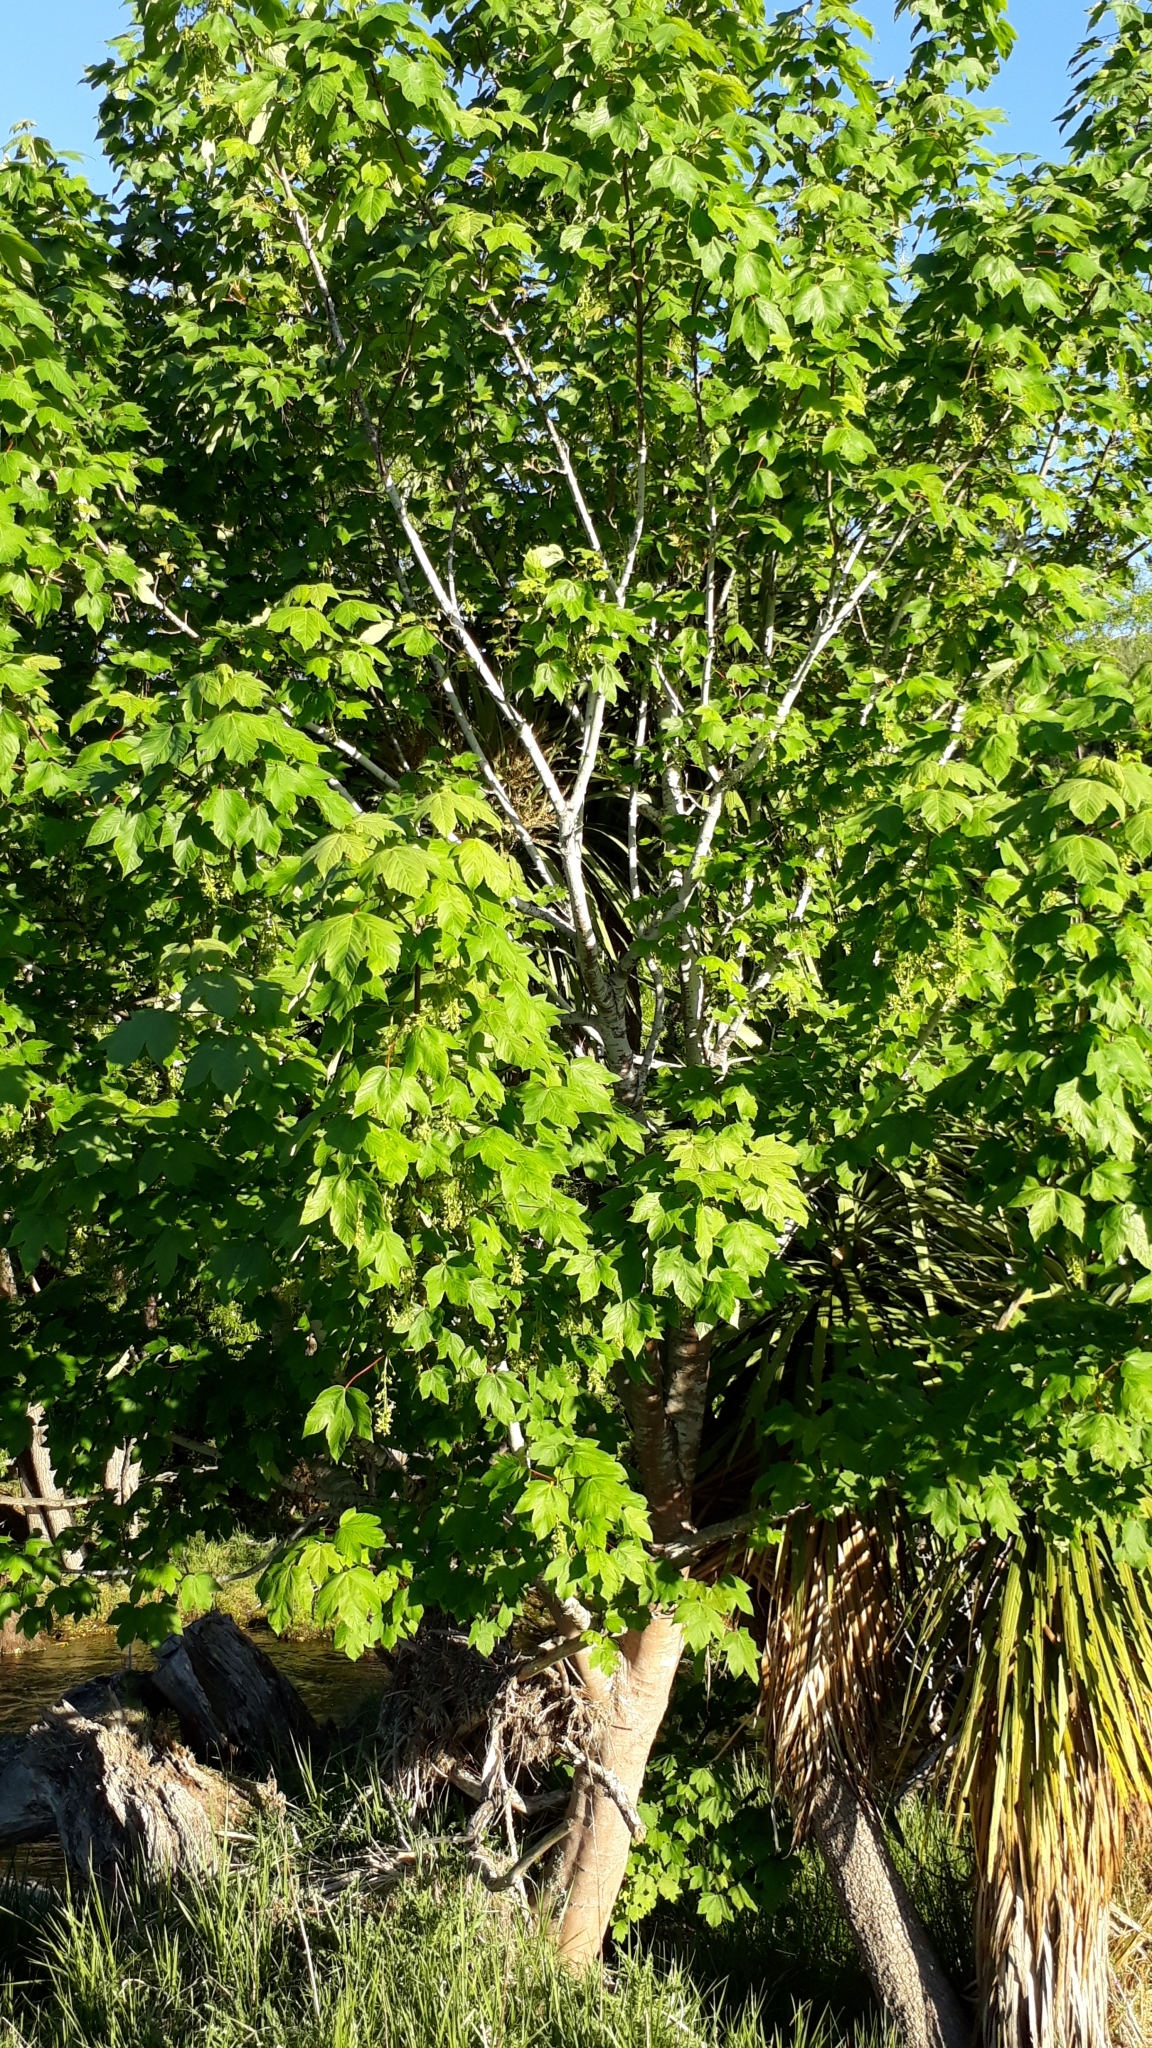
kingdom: Plantae
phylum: Tracheophyta
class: Magnoliopsida
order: Sapindales
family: Sapindaceae
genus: Acer
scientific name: Acer pseudoplatanus
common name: Sycamore
